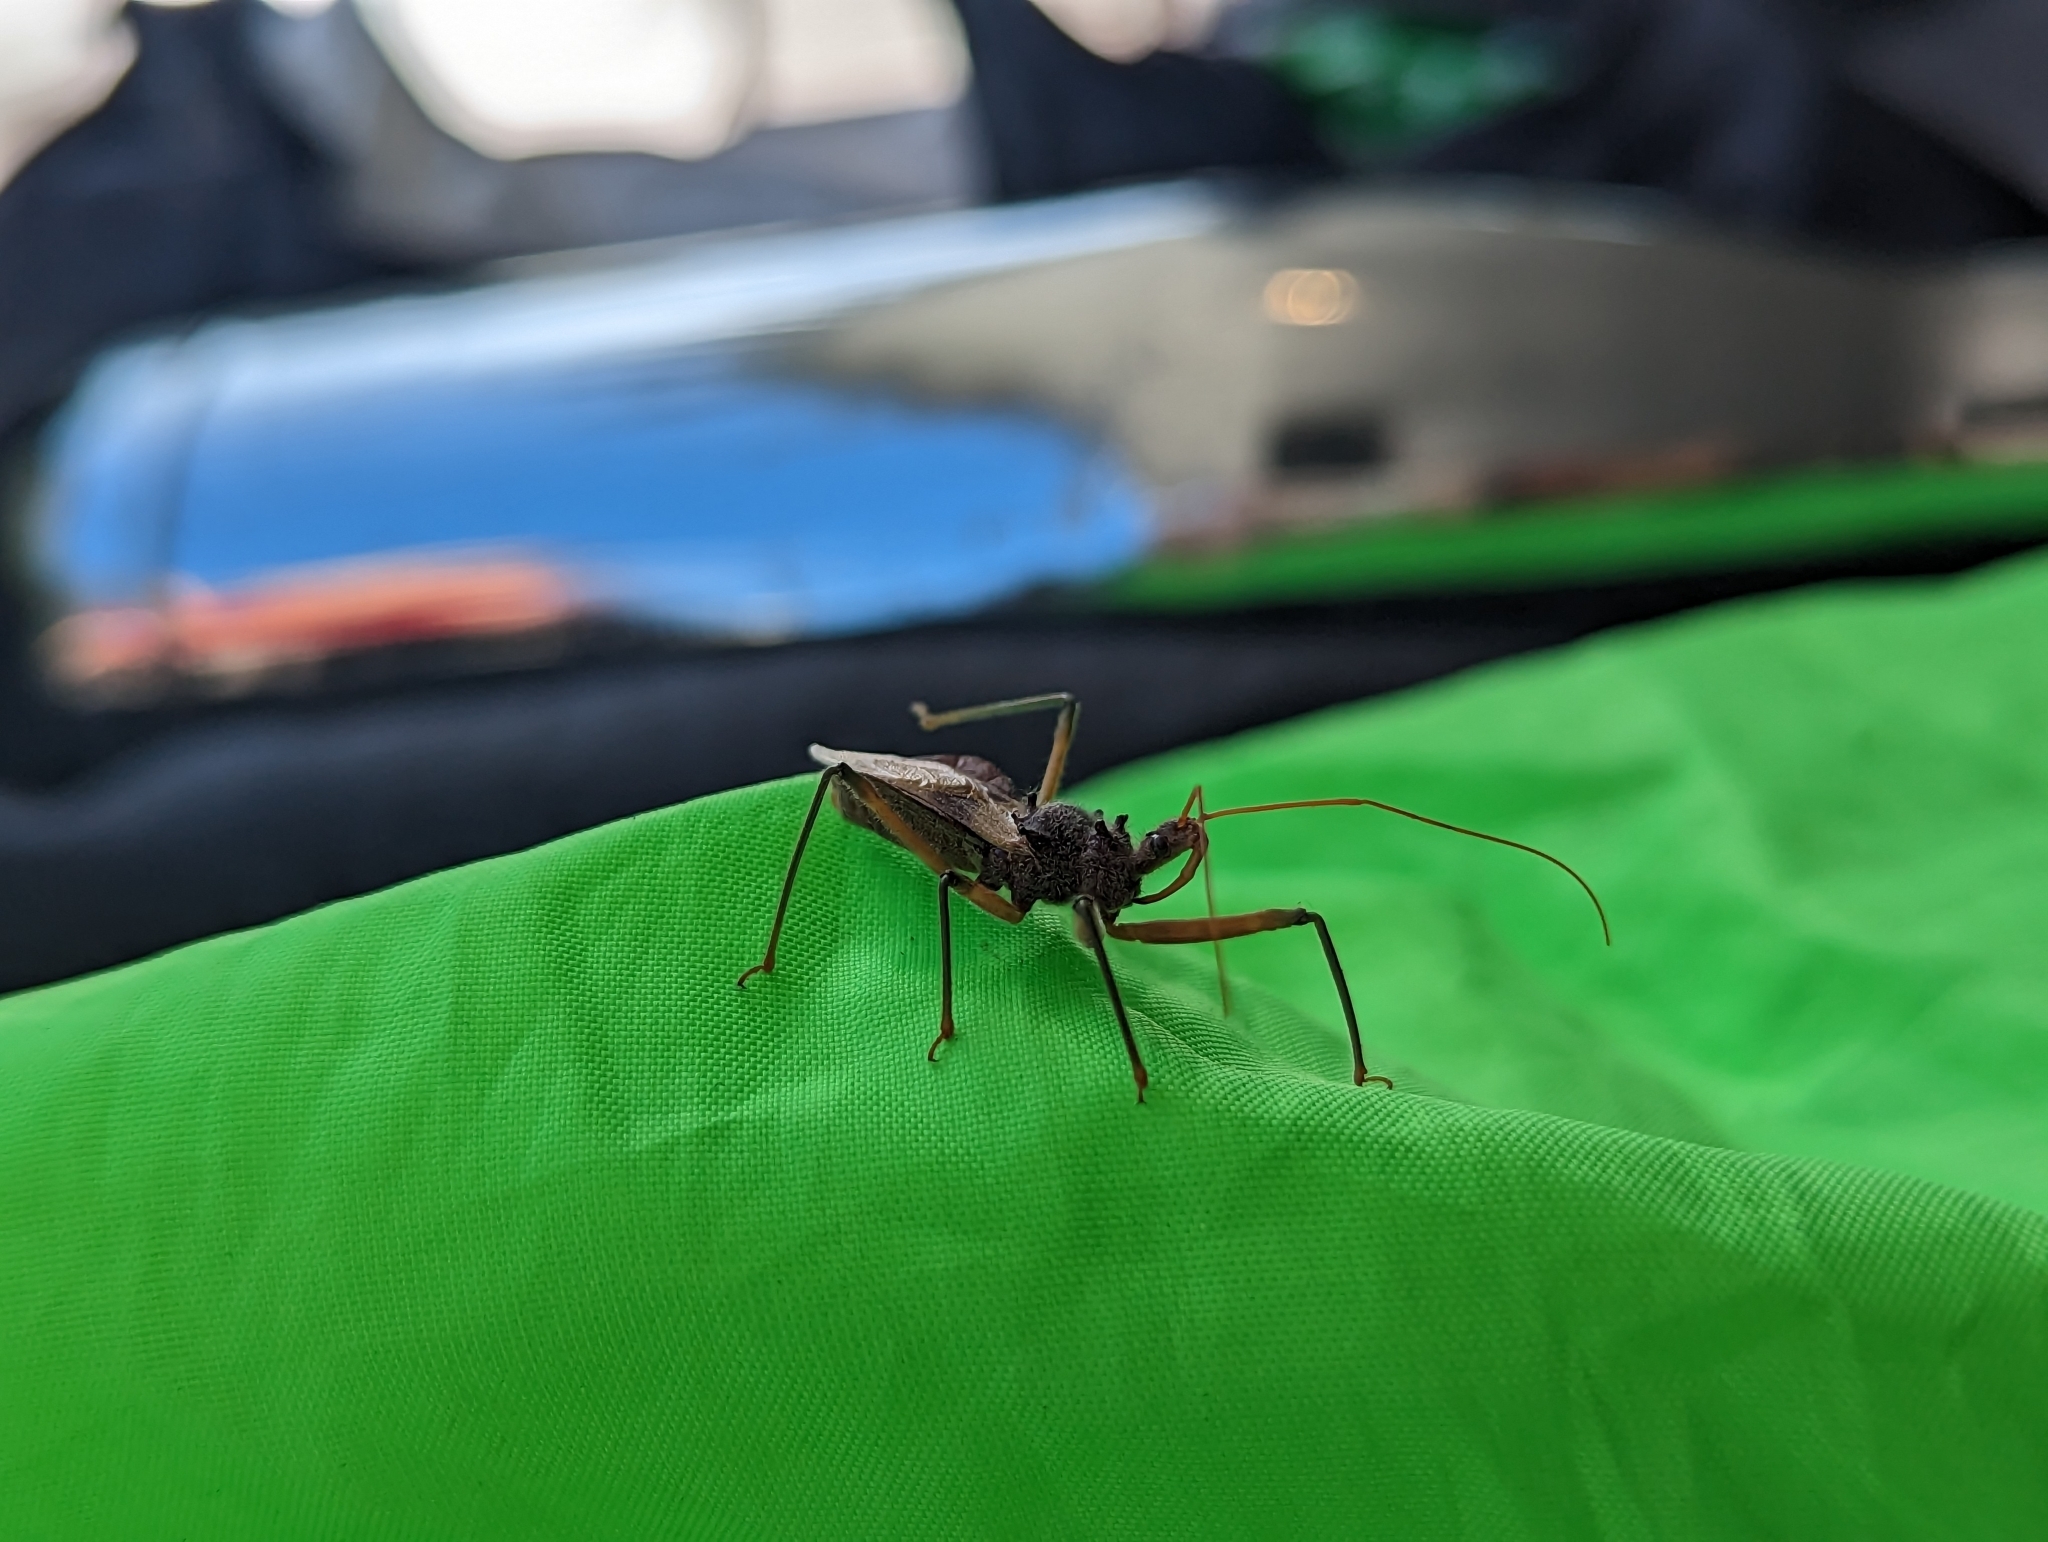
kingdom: Animalia
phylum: Arthropoda
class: Insecta
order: Hemiptera
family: Reduviidae
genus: Pristhesancus
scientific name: Pristhesancus plagipennis
